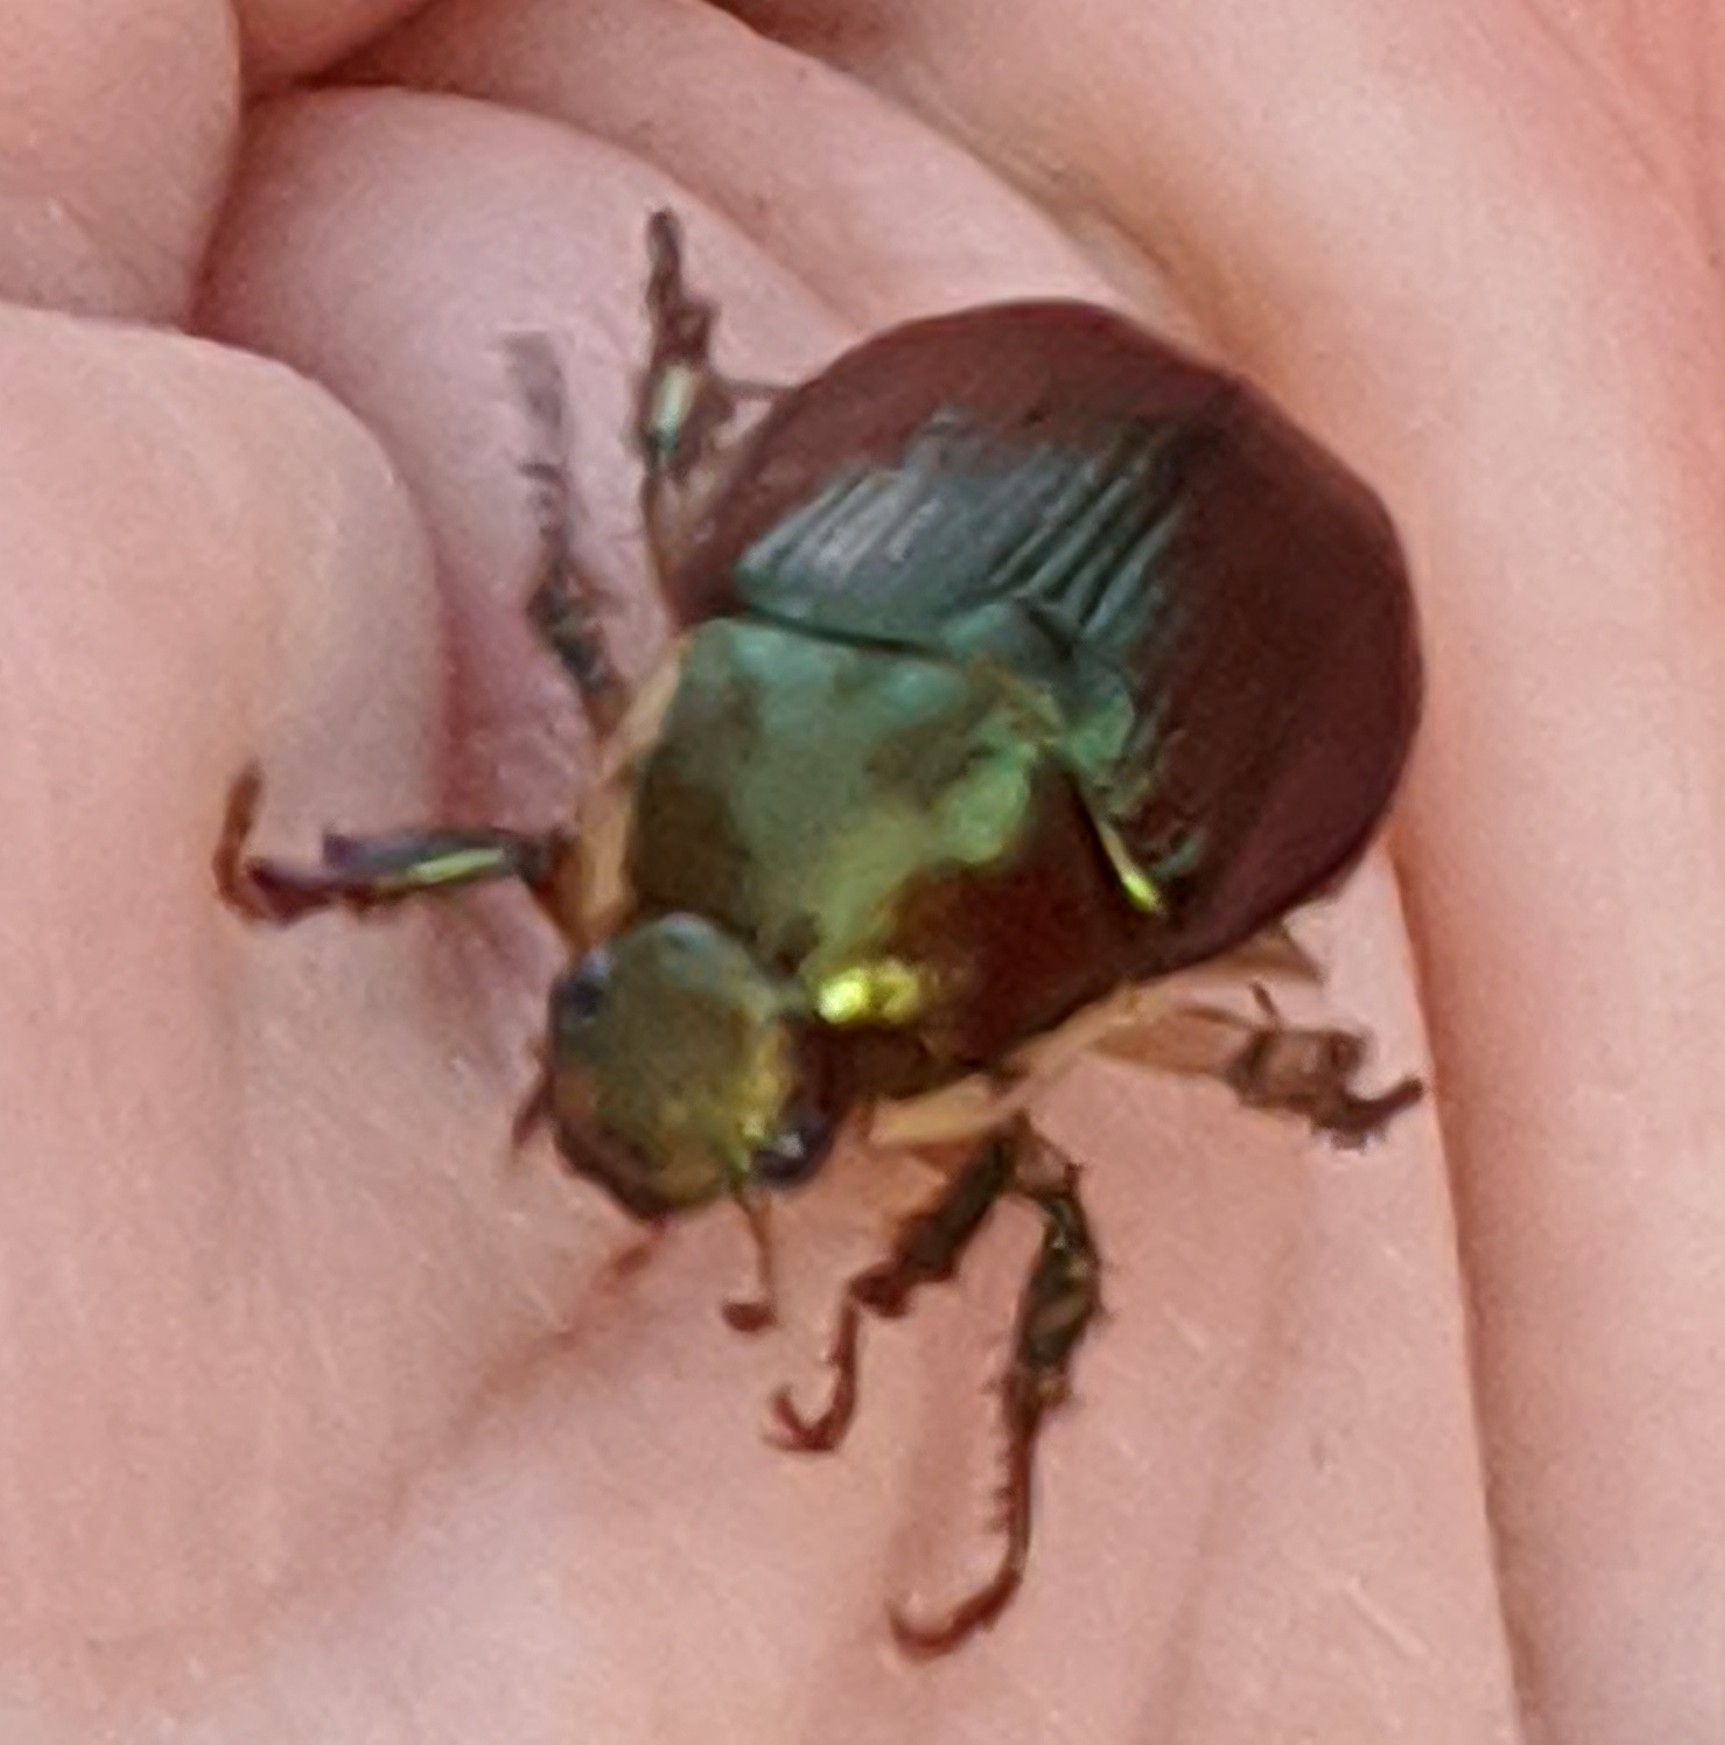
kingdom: Animalia
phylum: Arthropoda
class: Insecta
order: Coleoptera
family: Scarabaeidae
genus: Callistethus
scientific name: Callistethus marginatus
